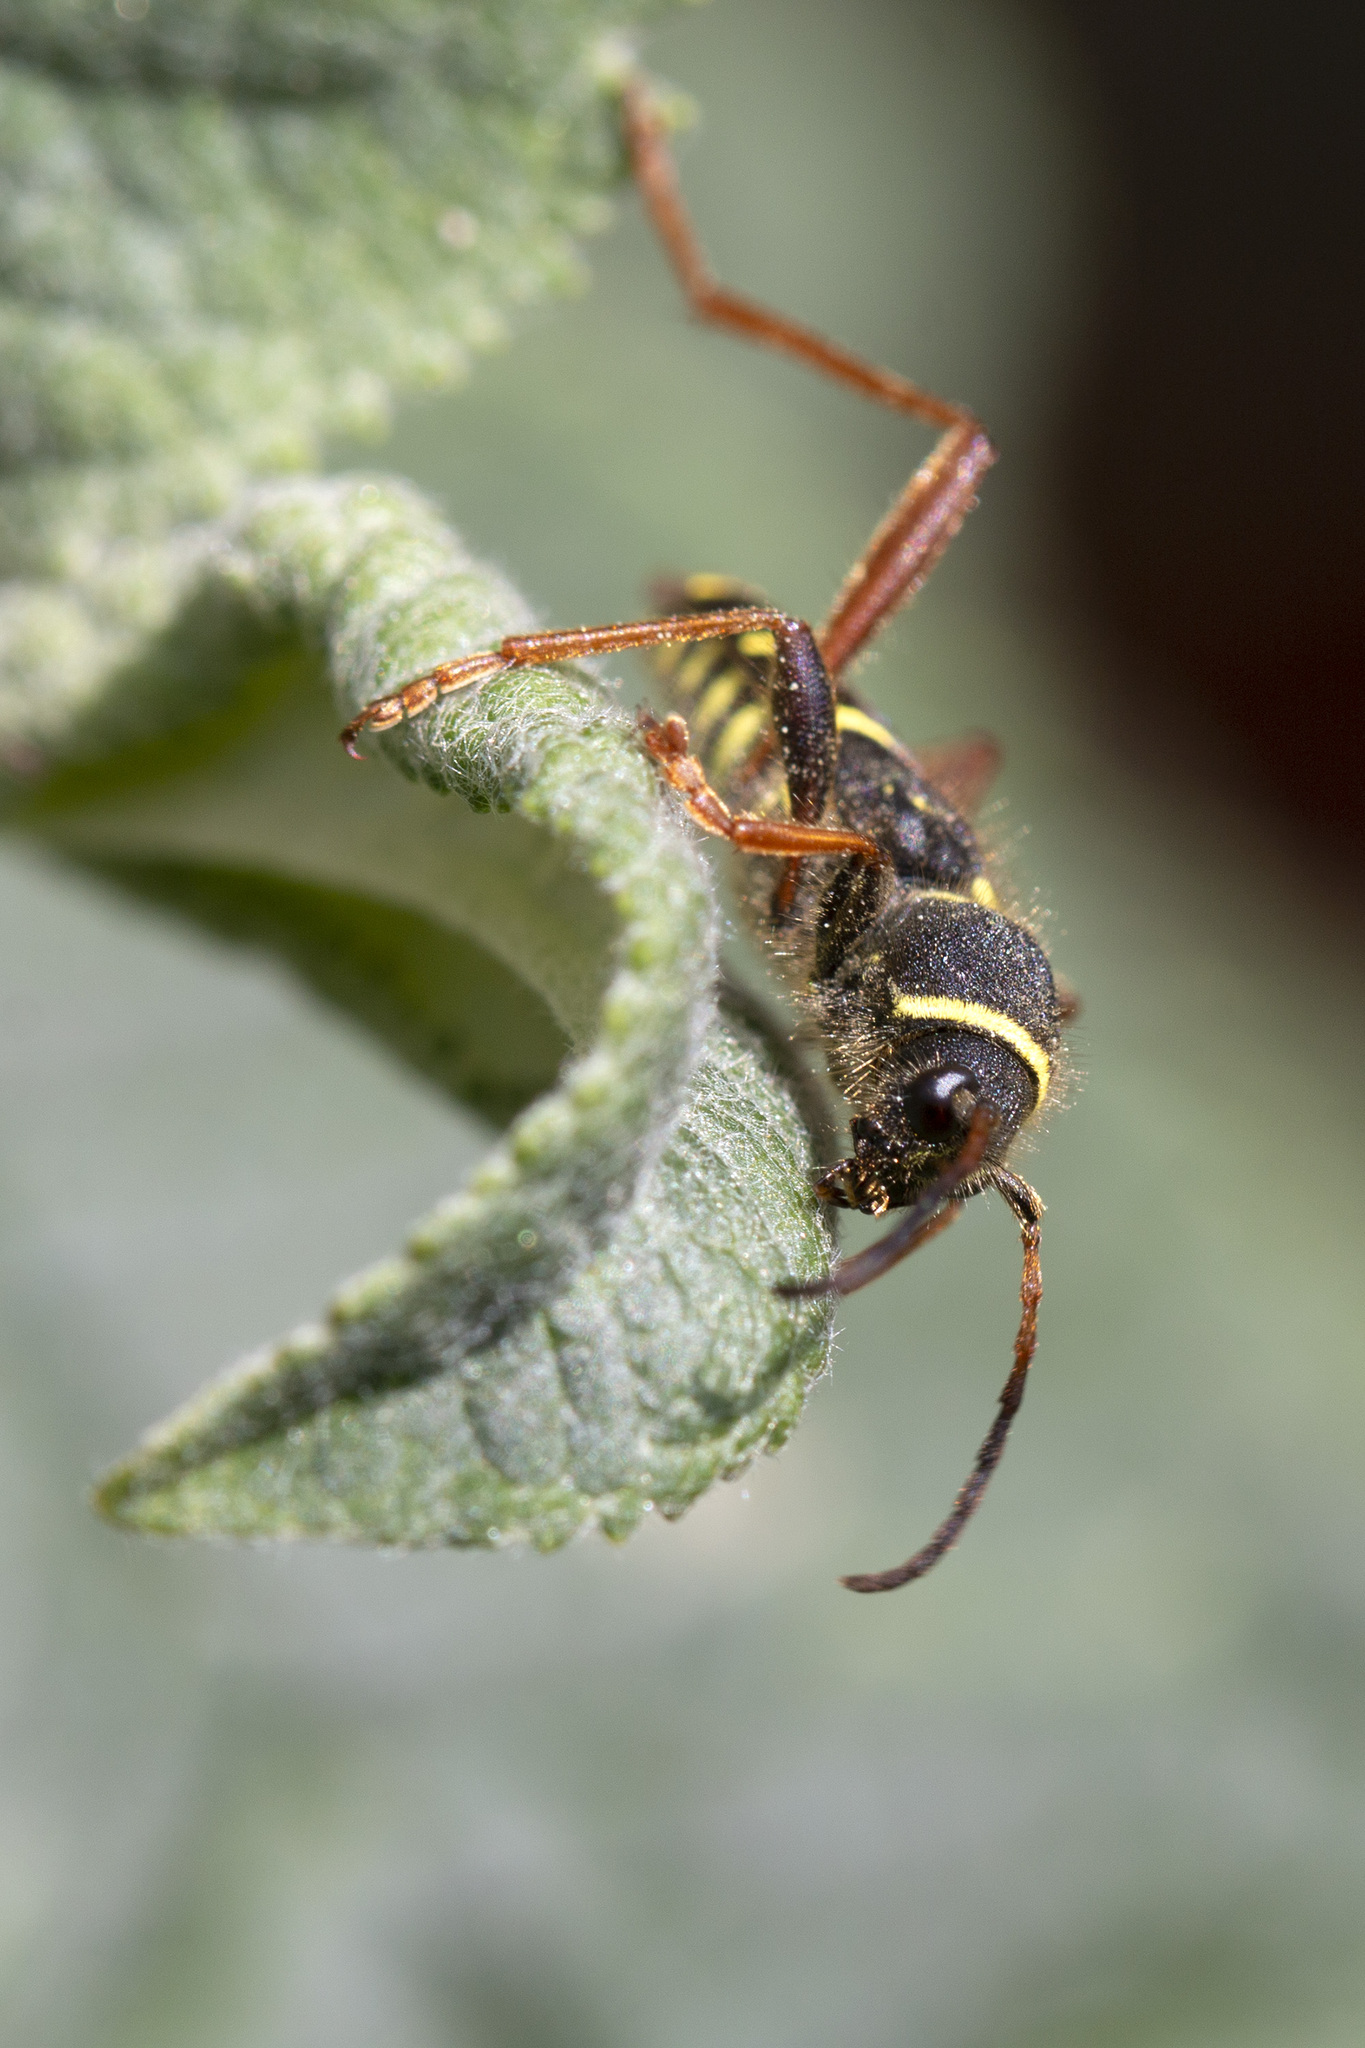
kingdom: Animalia
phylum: Arthropoda
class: Insecta
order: Coleoptera
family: Cerambycidae
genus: Clytus
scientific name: Clytus arietis
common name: Wasp beetle
